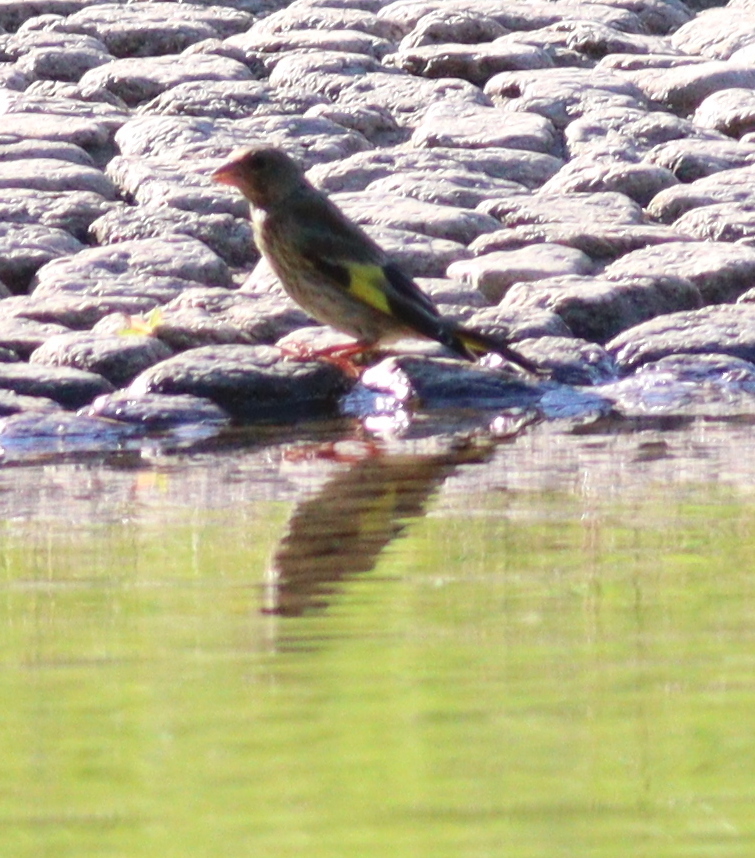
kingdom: Plantae
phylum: Tracheophyta
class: Liliopsida
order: Poales
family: Poaceae
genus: Chloris
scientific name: Chloris sinica
